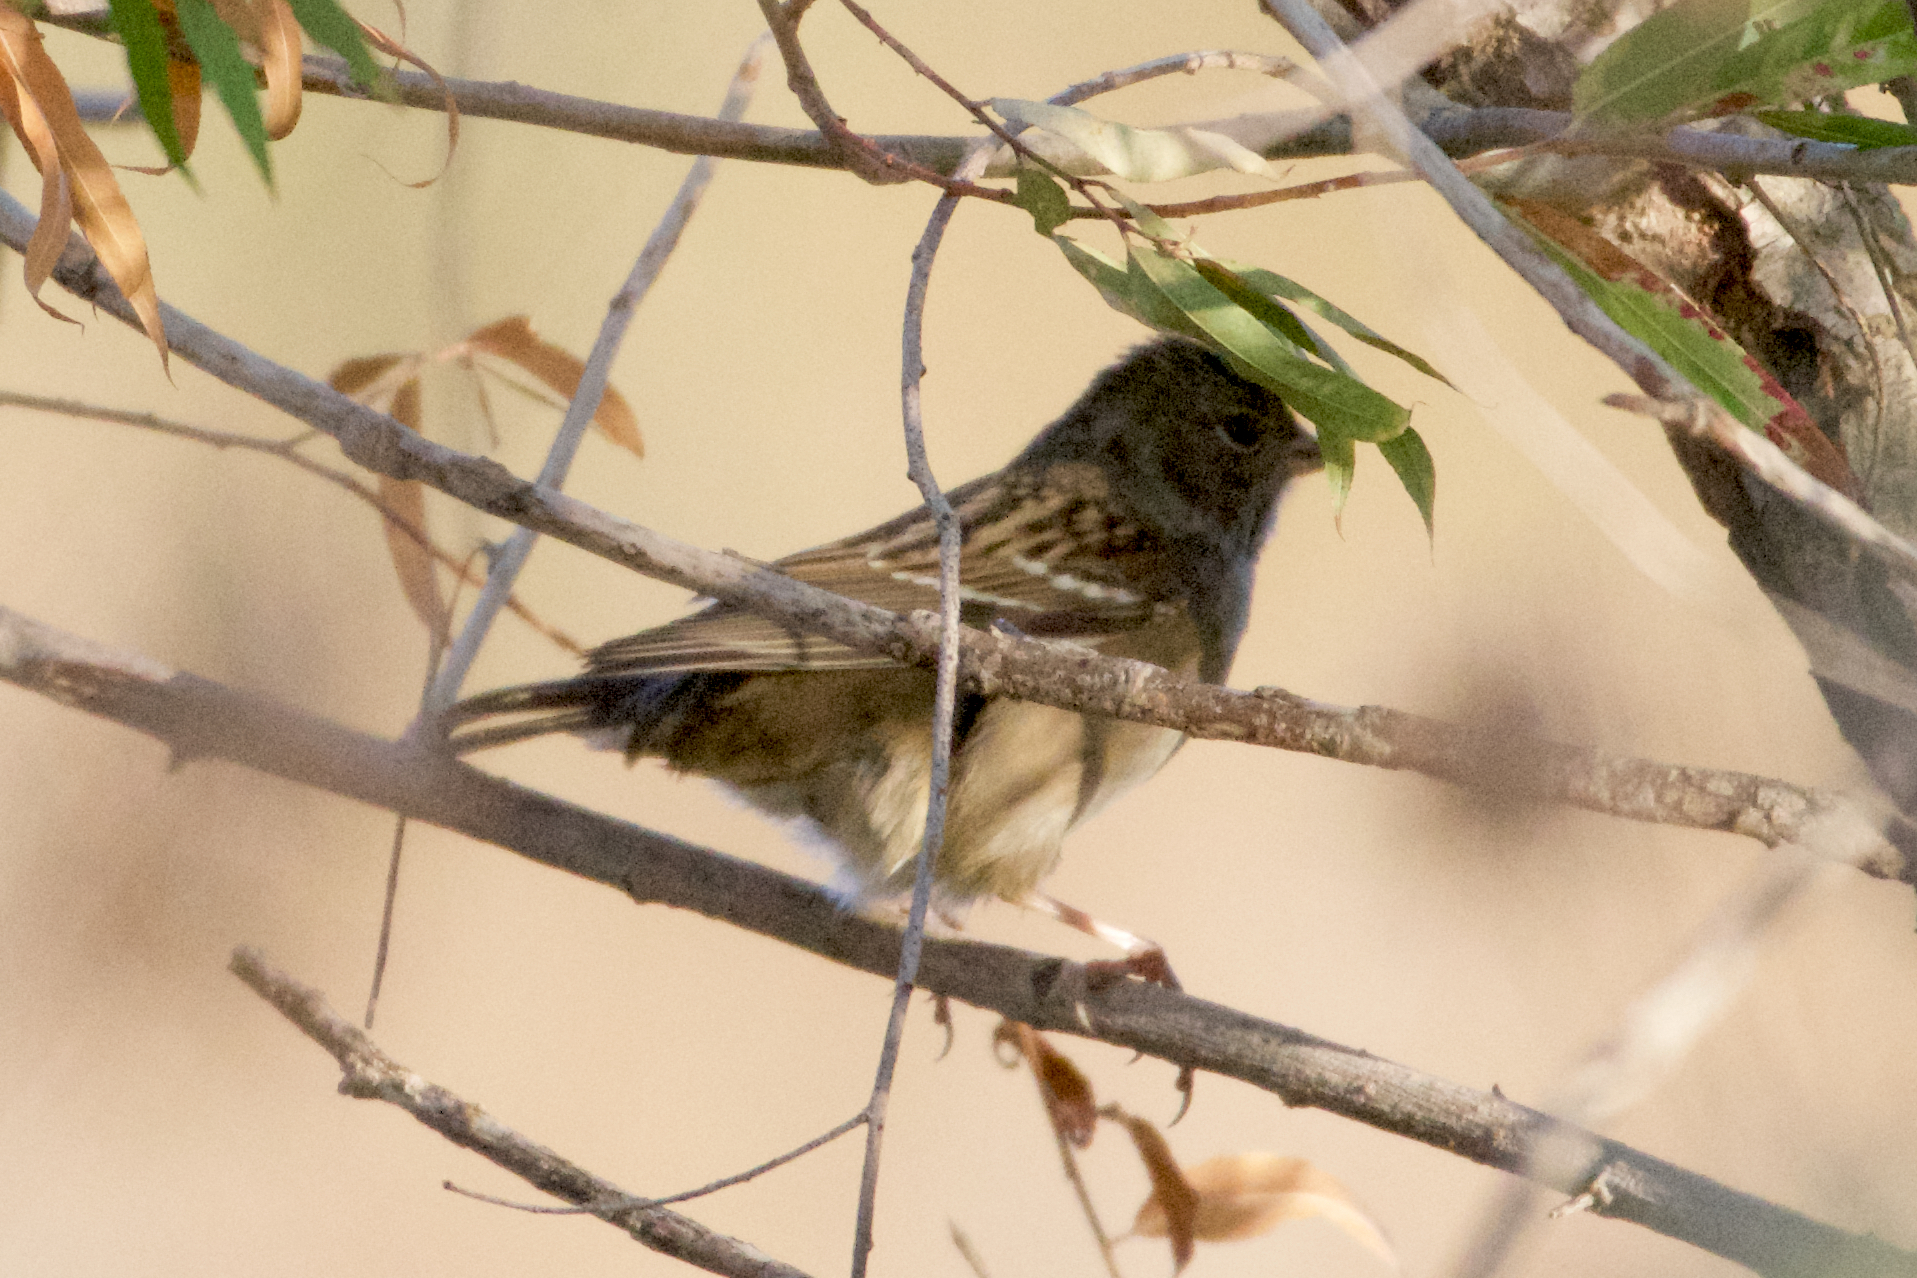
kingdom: Animalia
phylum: Chordata
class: Aves
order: Passeriformes
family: Passerellidae
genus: Zonotrichia
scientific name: Zonotrichia atricapilla
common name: Golden-crowned sparrow
